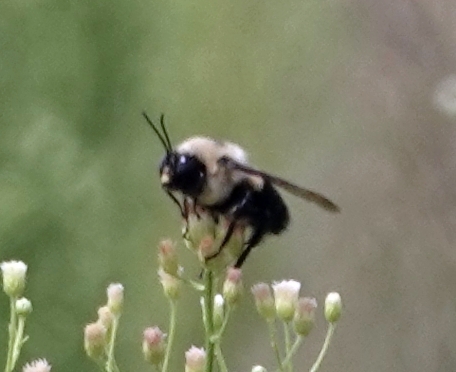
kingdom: Animalia
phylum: Arthropoda
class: Insecta
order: Hymenoptera
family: Apidae
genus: Bombus
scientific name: Bombus griseocollis
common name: Brown-belted bumble bee
